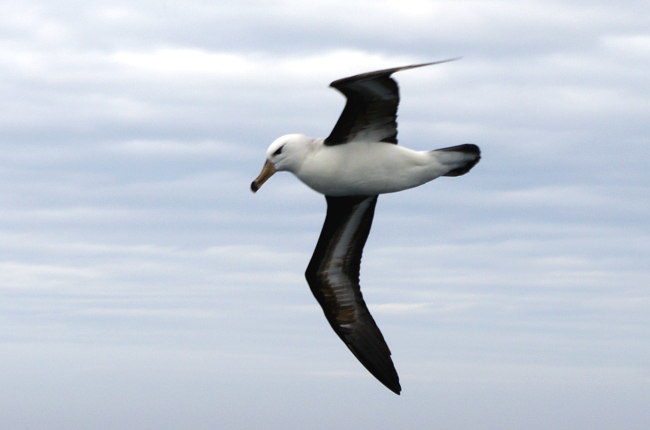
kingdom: Animalia
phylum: Chordata
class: Aves
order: Procellariiformes
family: Diomedeidae
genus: Thalassarche
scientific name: Thalassarche melanophris
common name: Black-browed albatross
